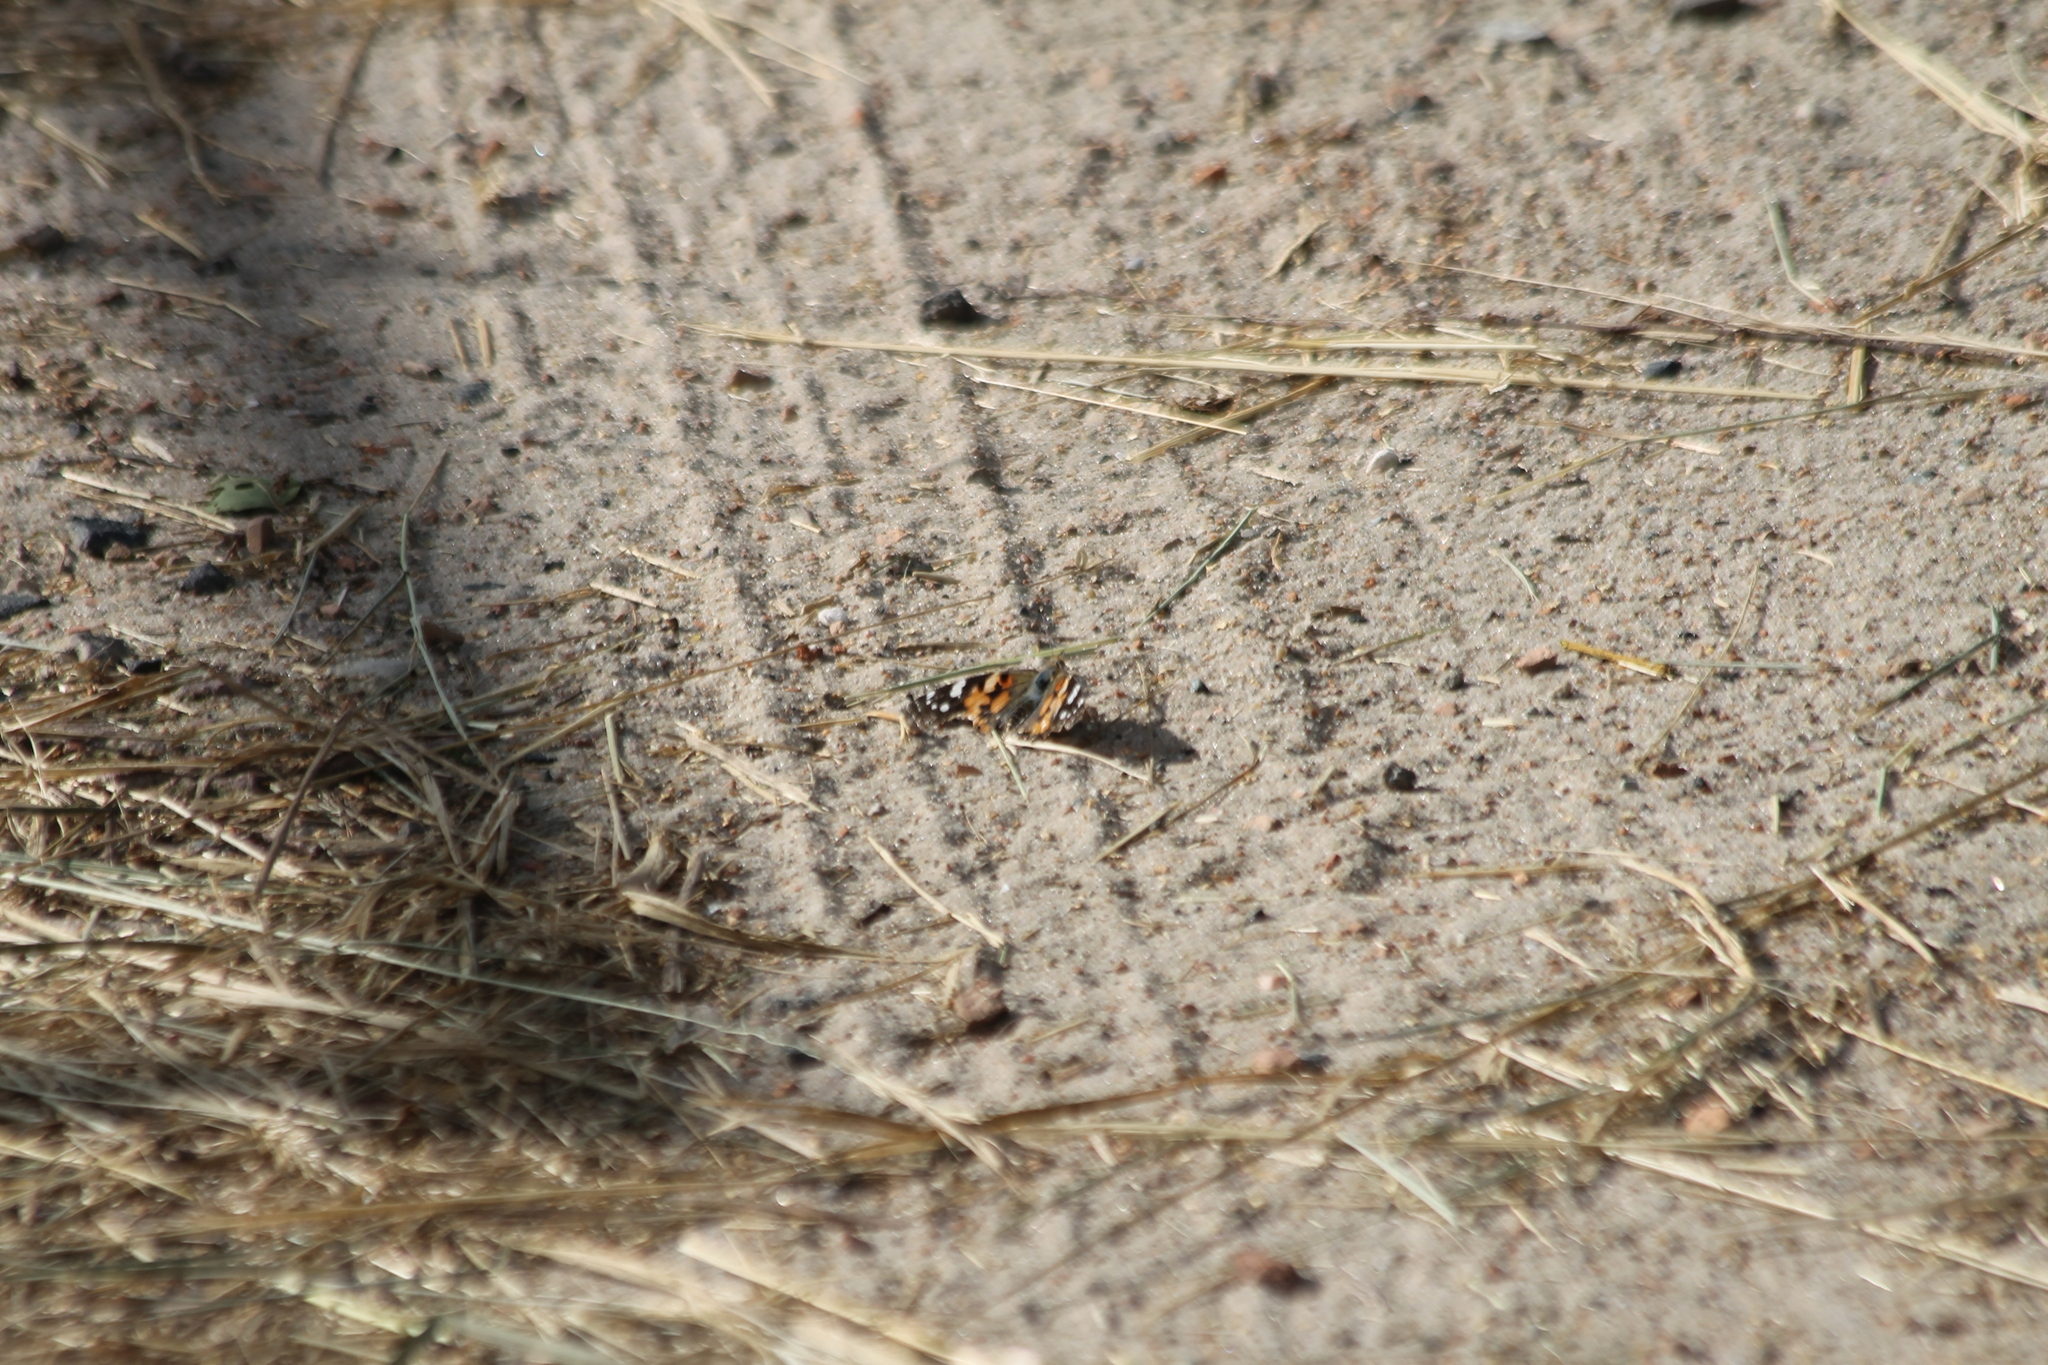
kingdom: Animalia
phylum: Arthropoda
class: Insecta
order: Lepidoptera
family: Nymphalidae
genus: Vanessa
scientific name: Vanessa cardui
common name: Painted lady
